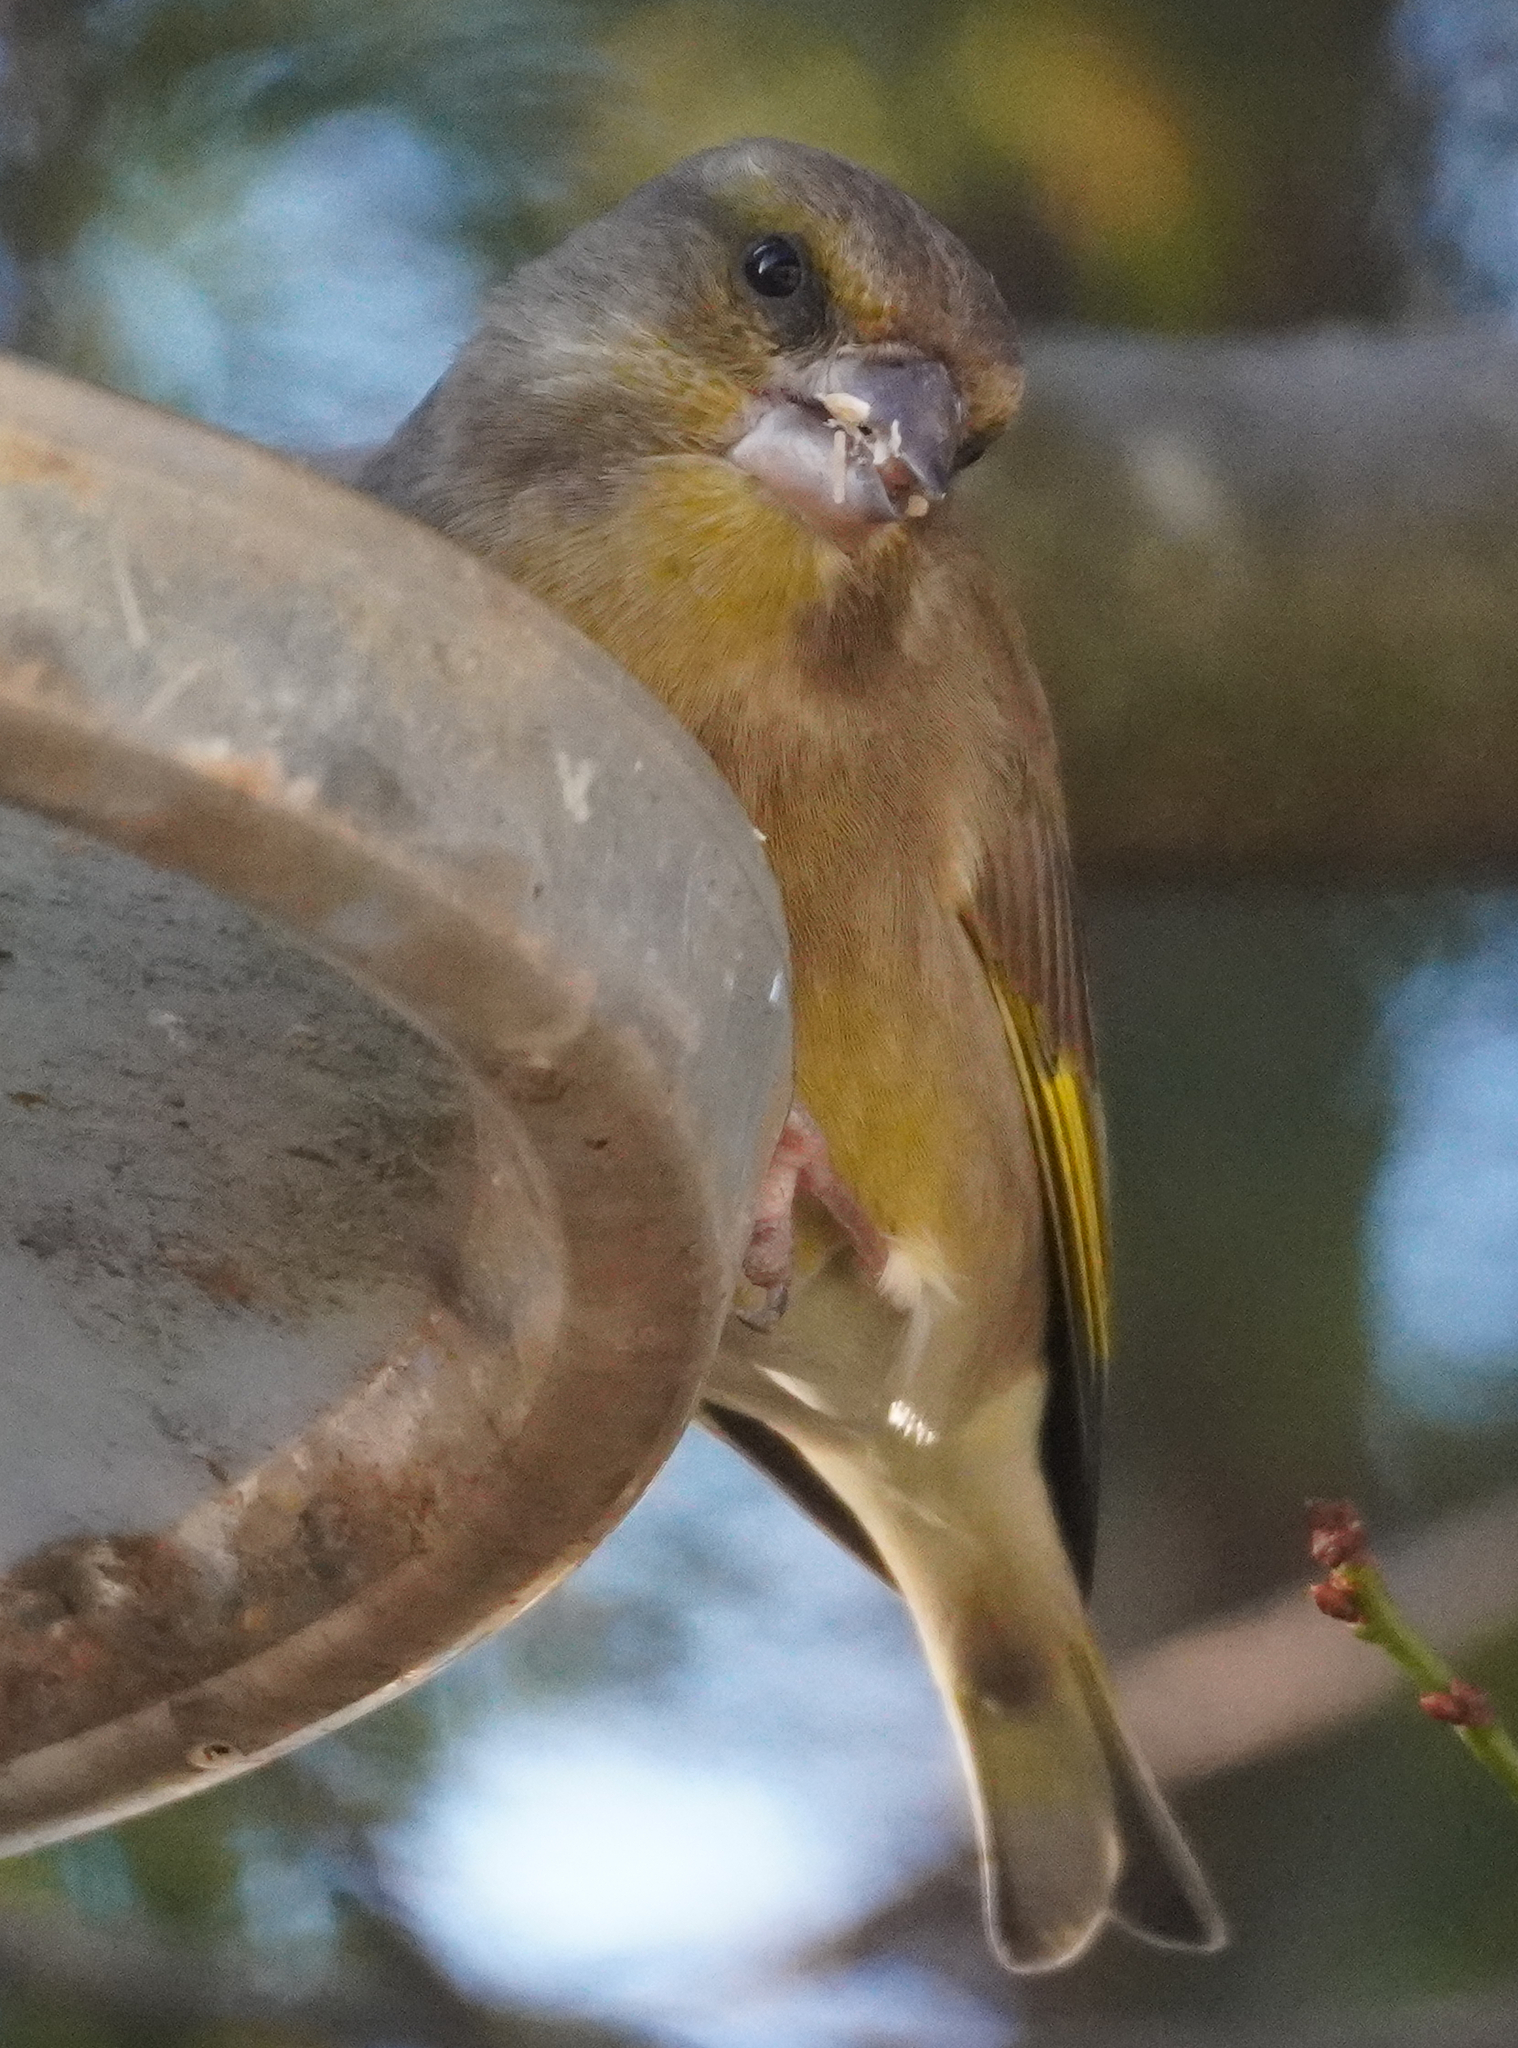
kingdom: Plantae
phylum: Tracheophyta
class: Liliopsida
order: Poales
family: Poaceae
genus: Chloris
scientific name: Chloris chloris
